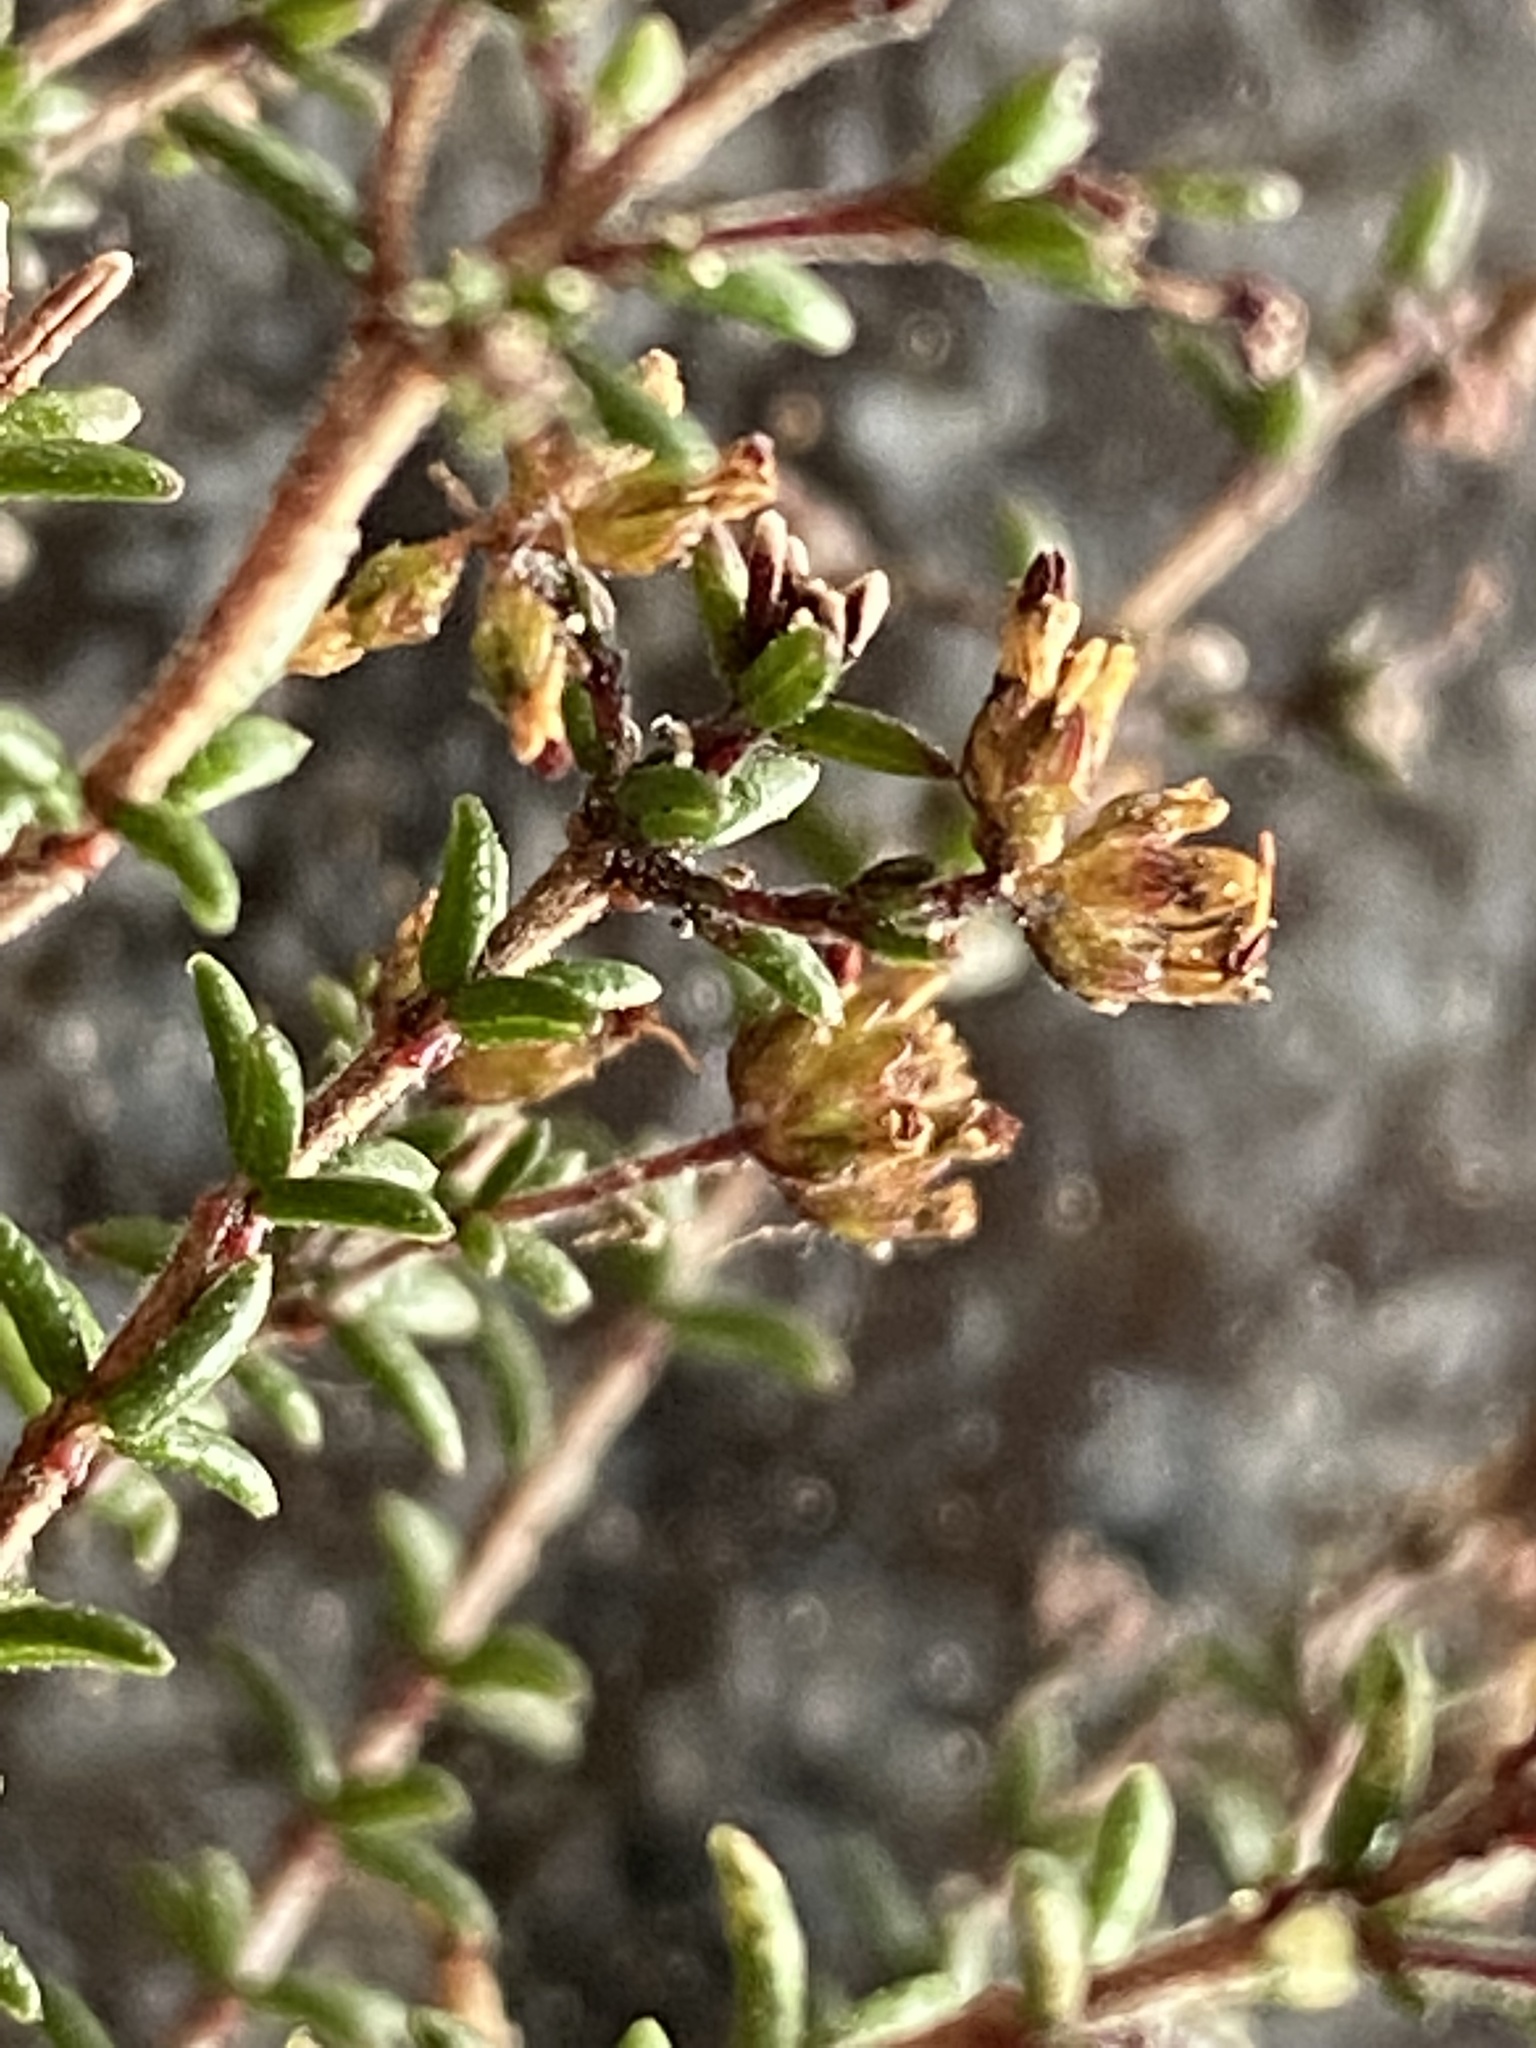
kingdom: Plantae
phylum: Tracheophyta
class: Magnoliopsida
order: Ericales
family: Ericaceae
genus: Erica
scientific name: Erica dispar
